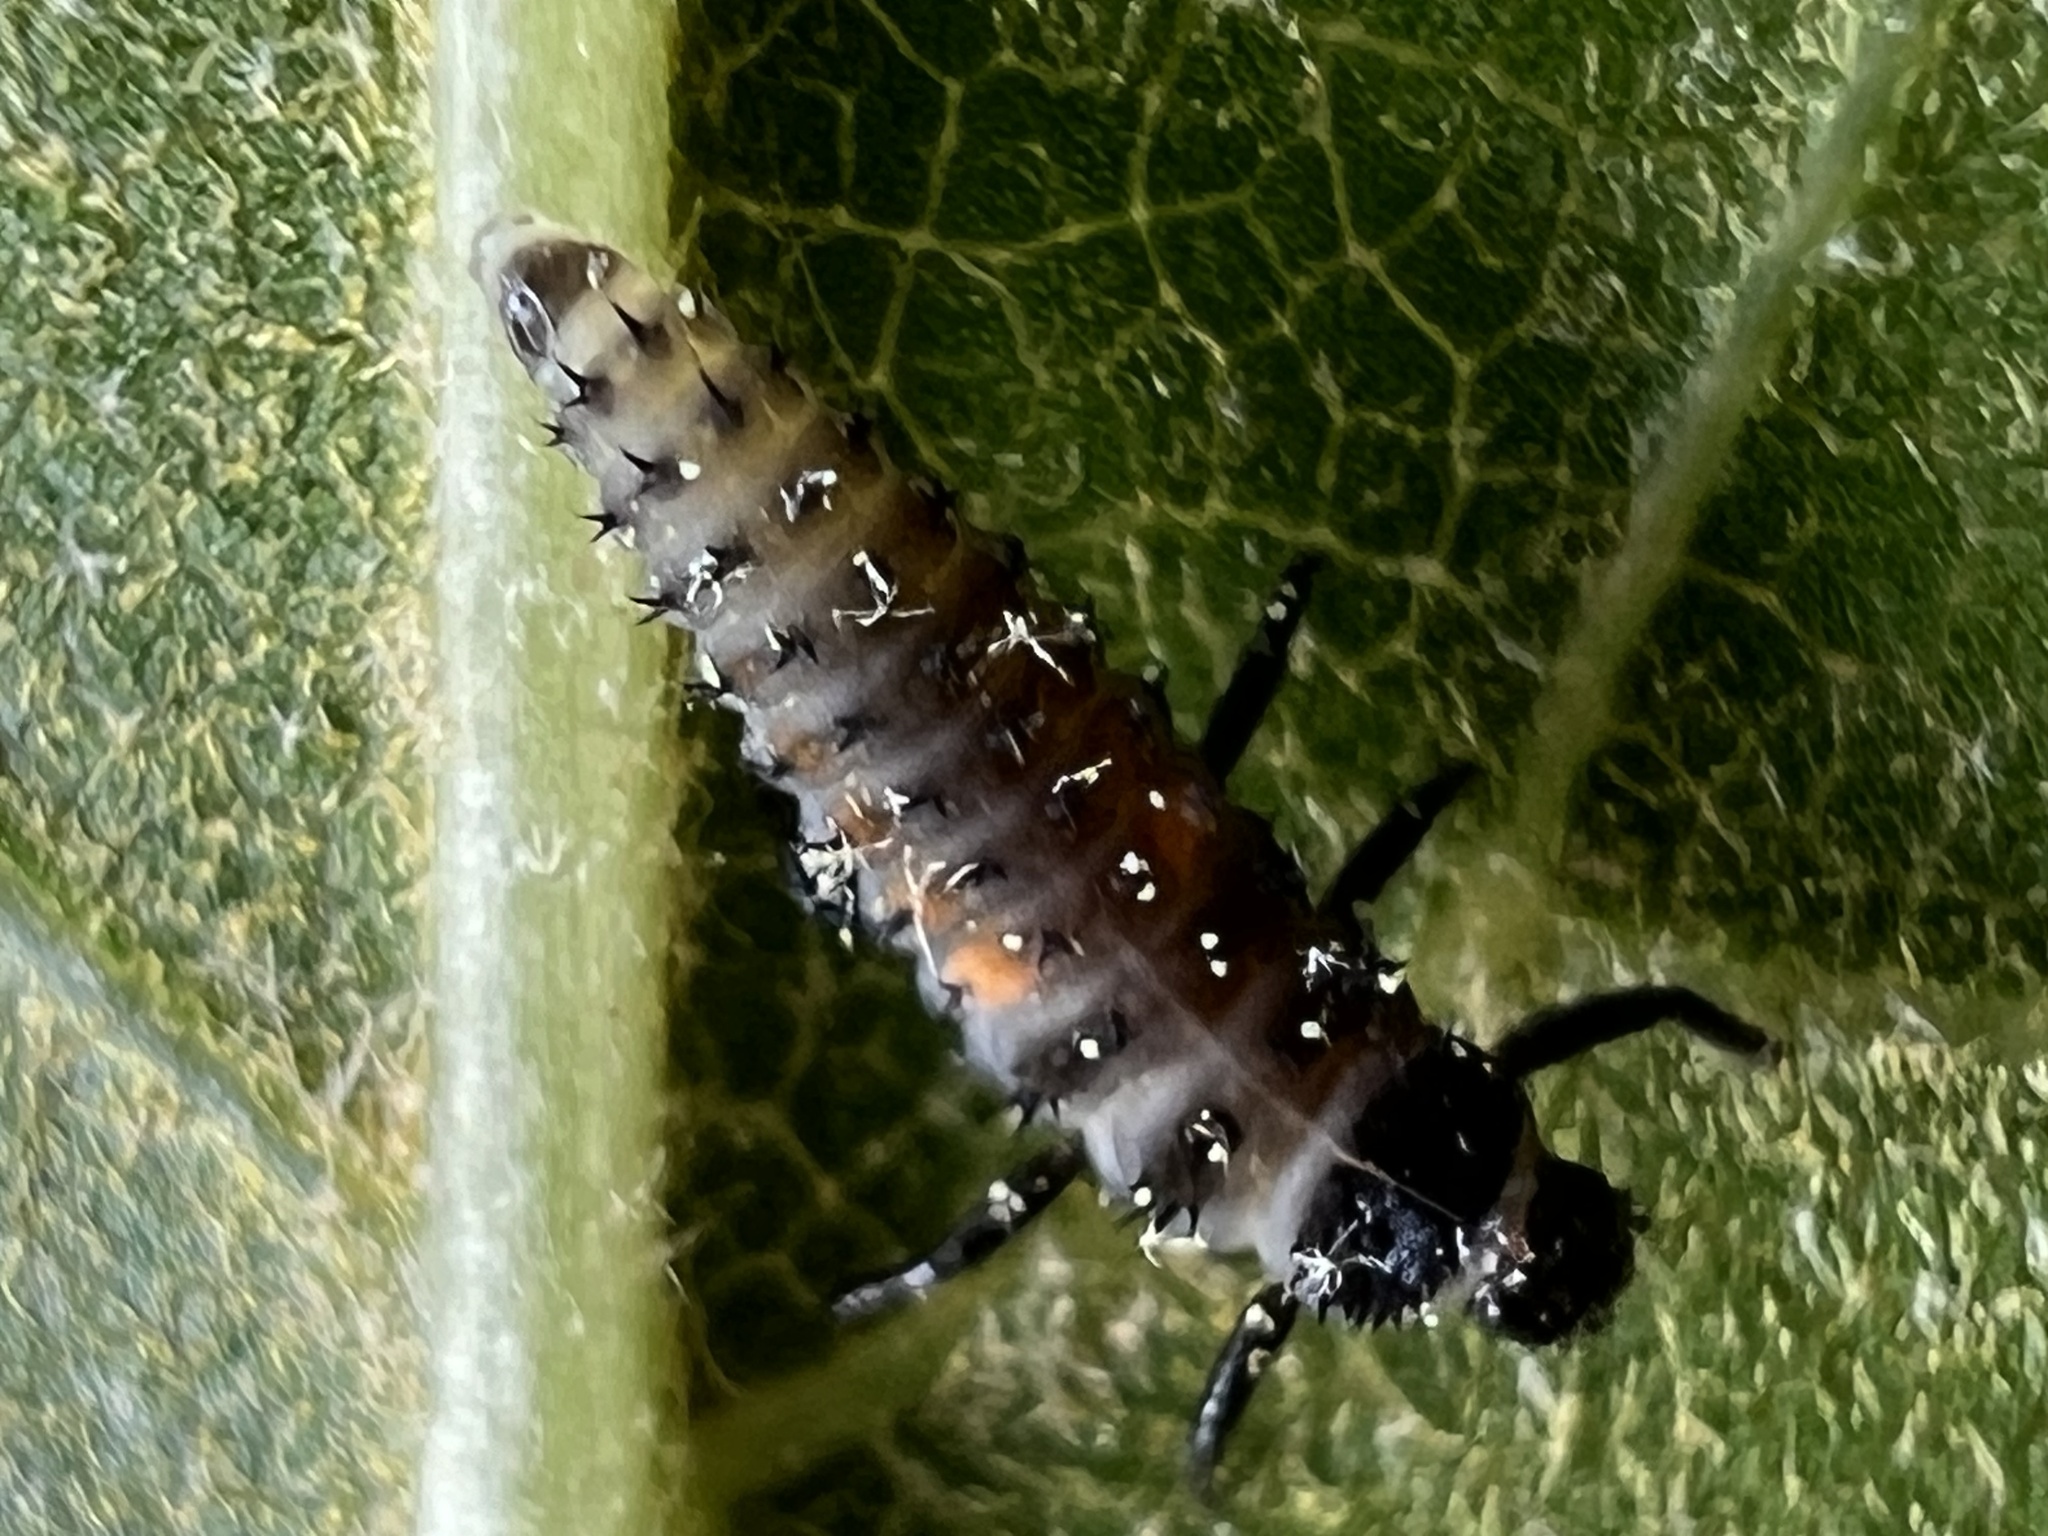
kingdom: Animalia
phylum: Arthropoda
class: Insecta
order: Coleoptera
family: Coccinellidae
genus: Harmonia
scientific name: Harmonia axyridis
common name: Harlequin ladybird
